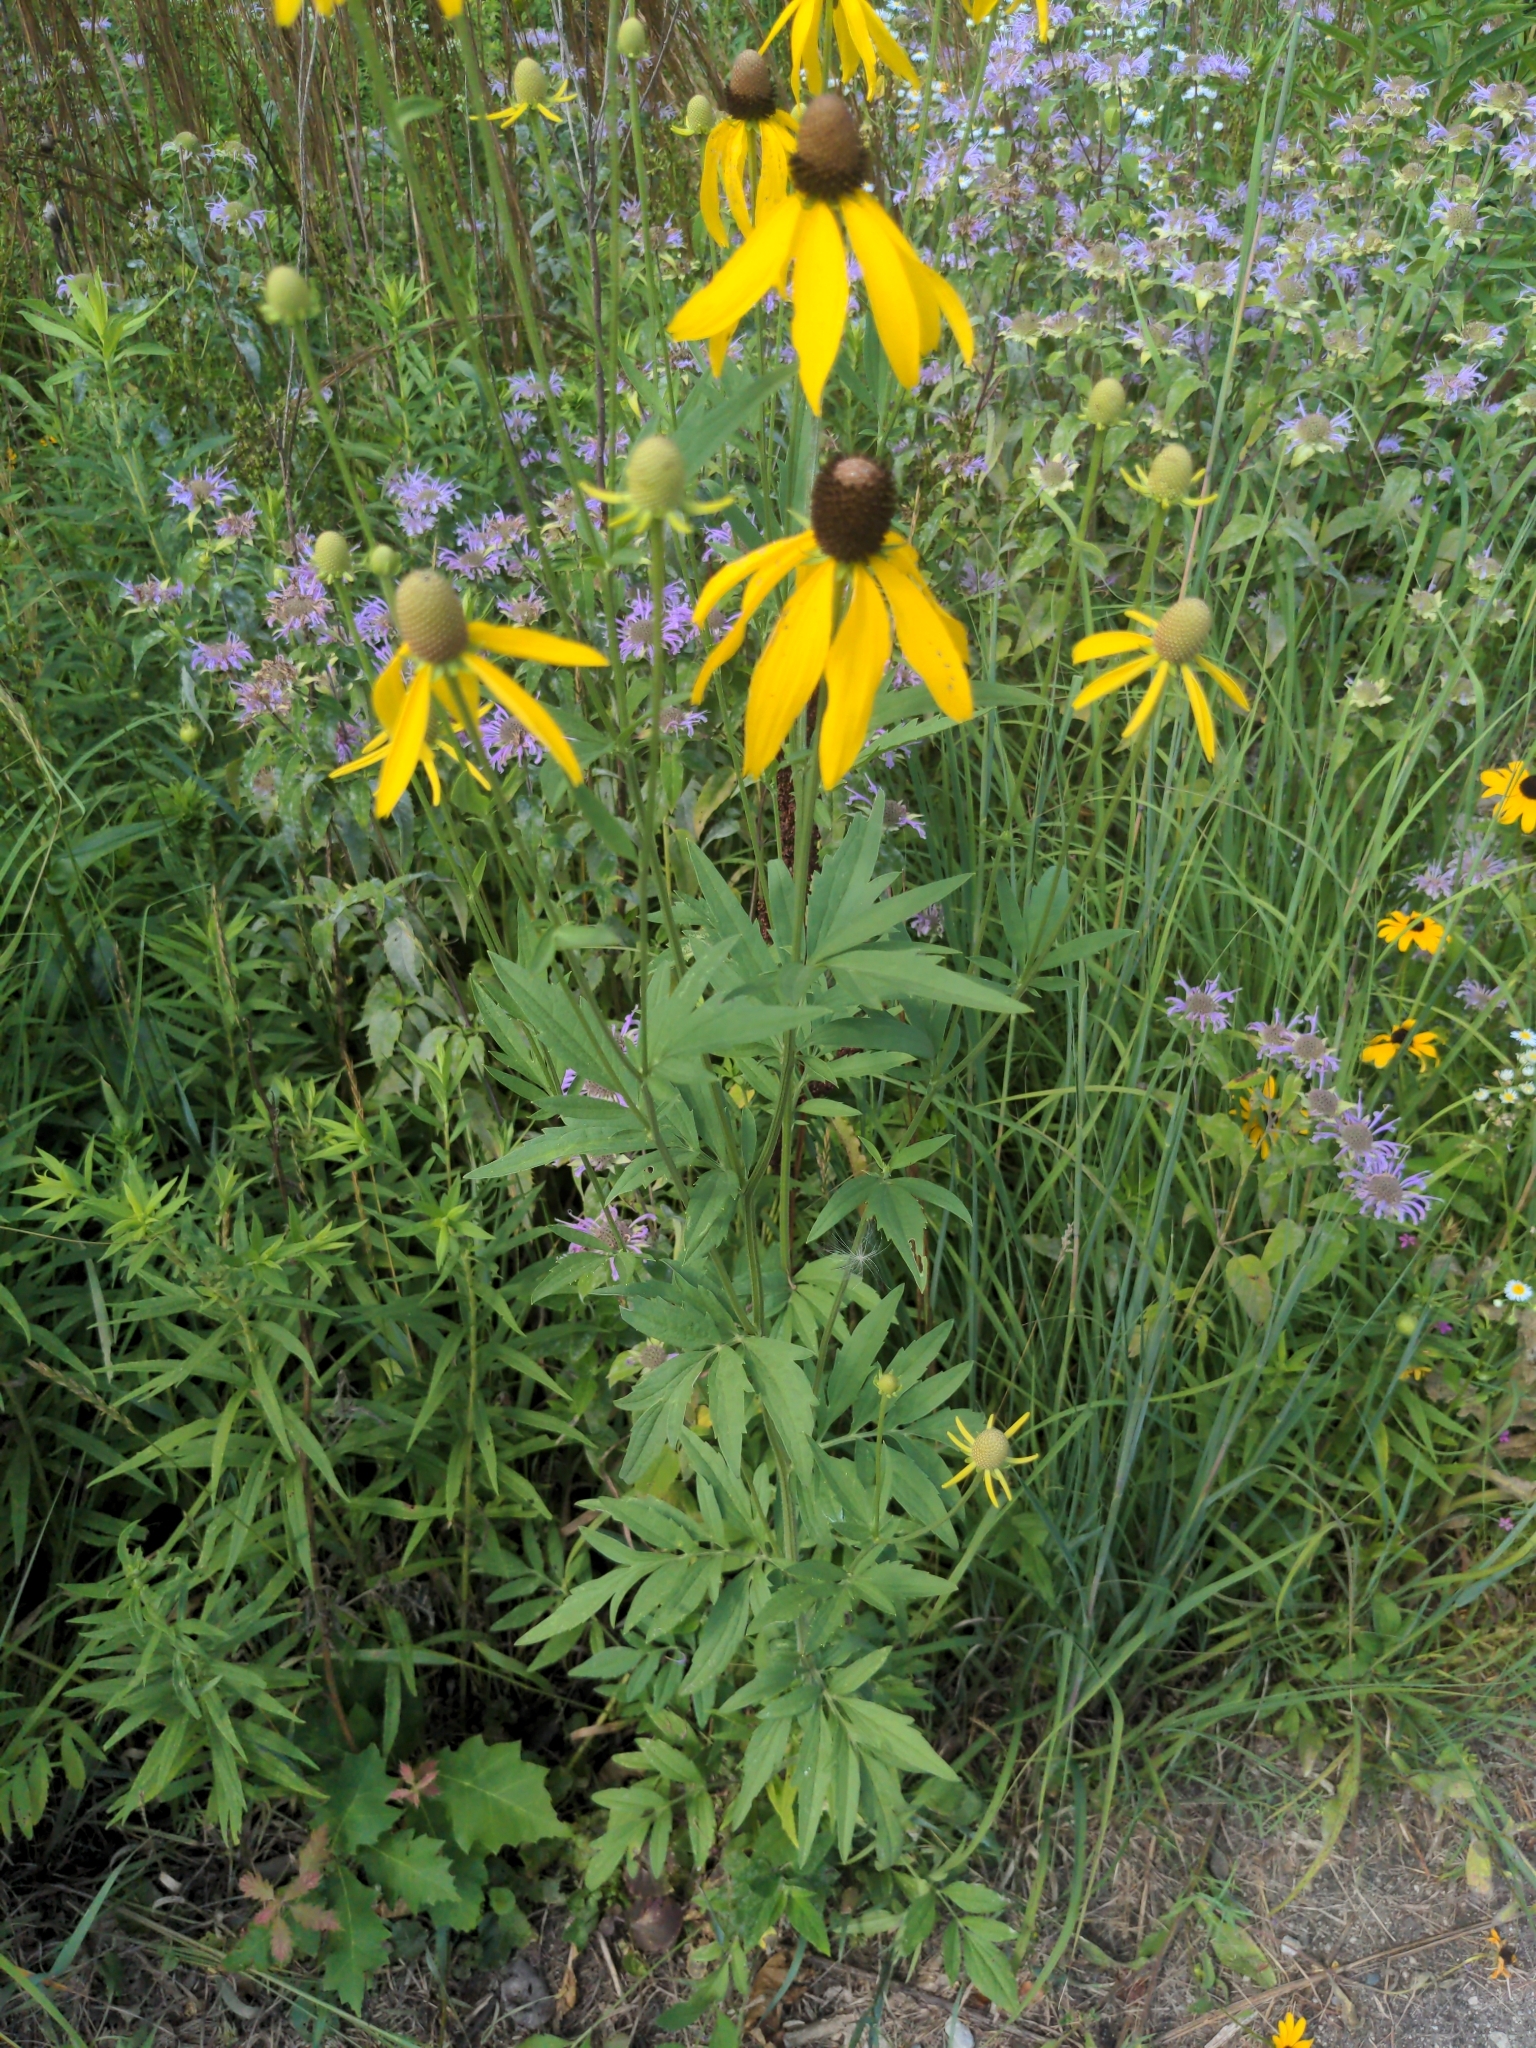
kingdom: Plantae
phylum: Tracheophyta
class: Magnoliopsida
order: Asterales
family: Asteraceae
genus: Ratibida
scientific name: Ratibida pinnata
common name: Drooping prairie-coneflower
